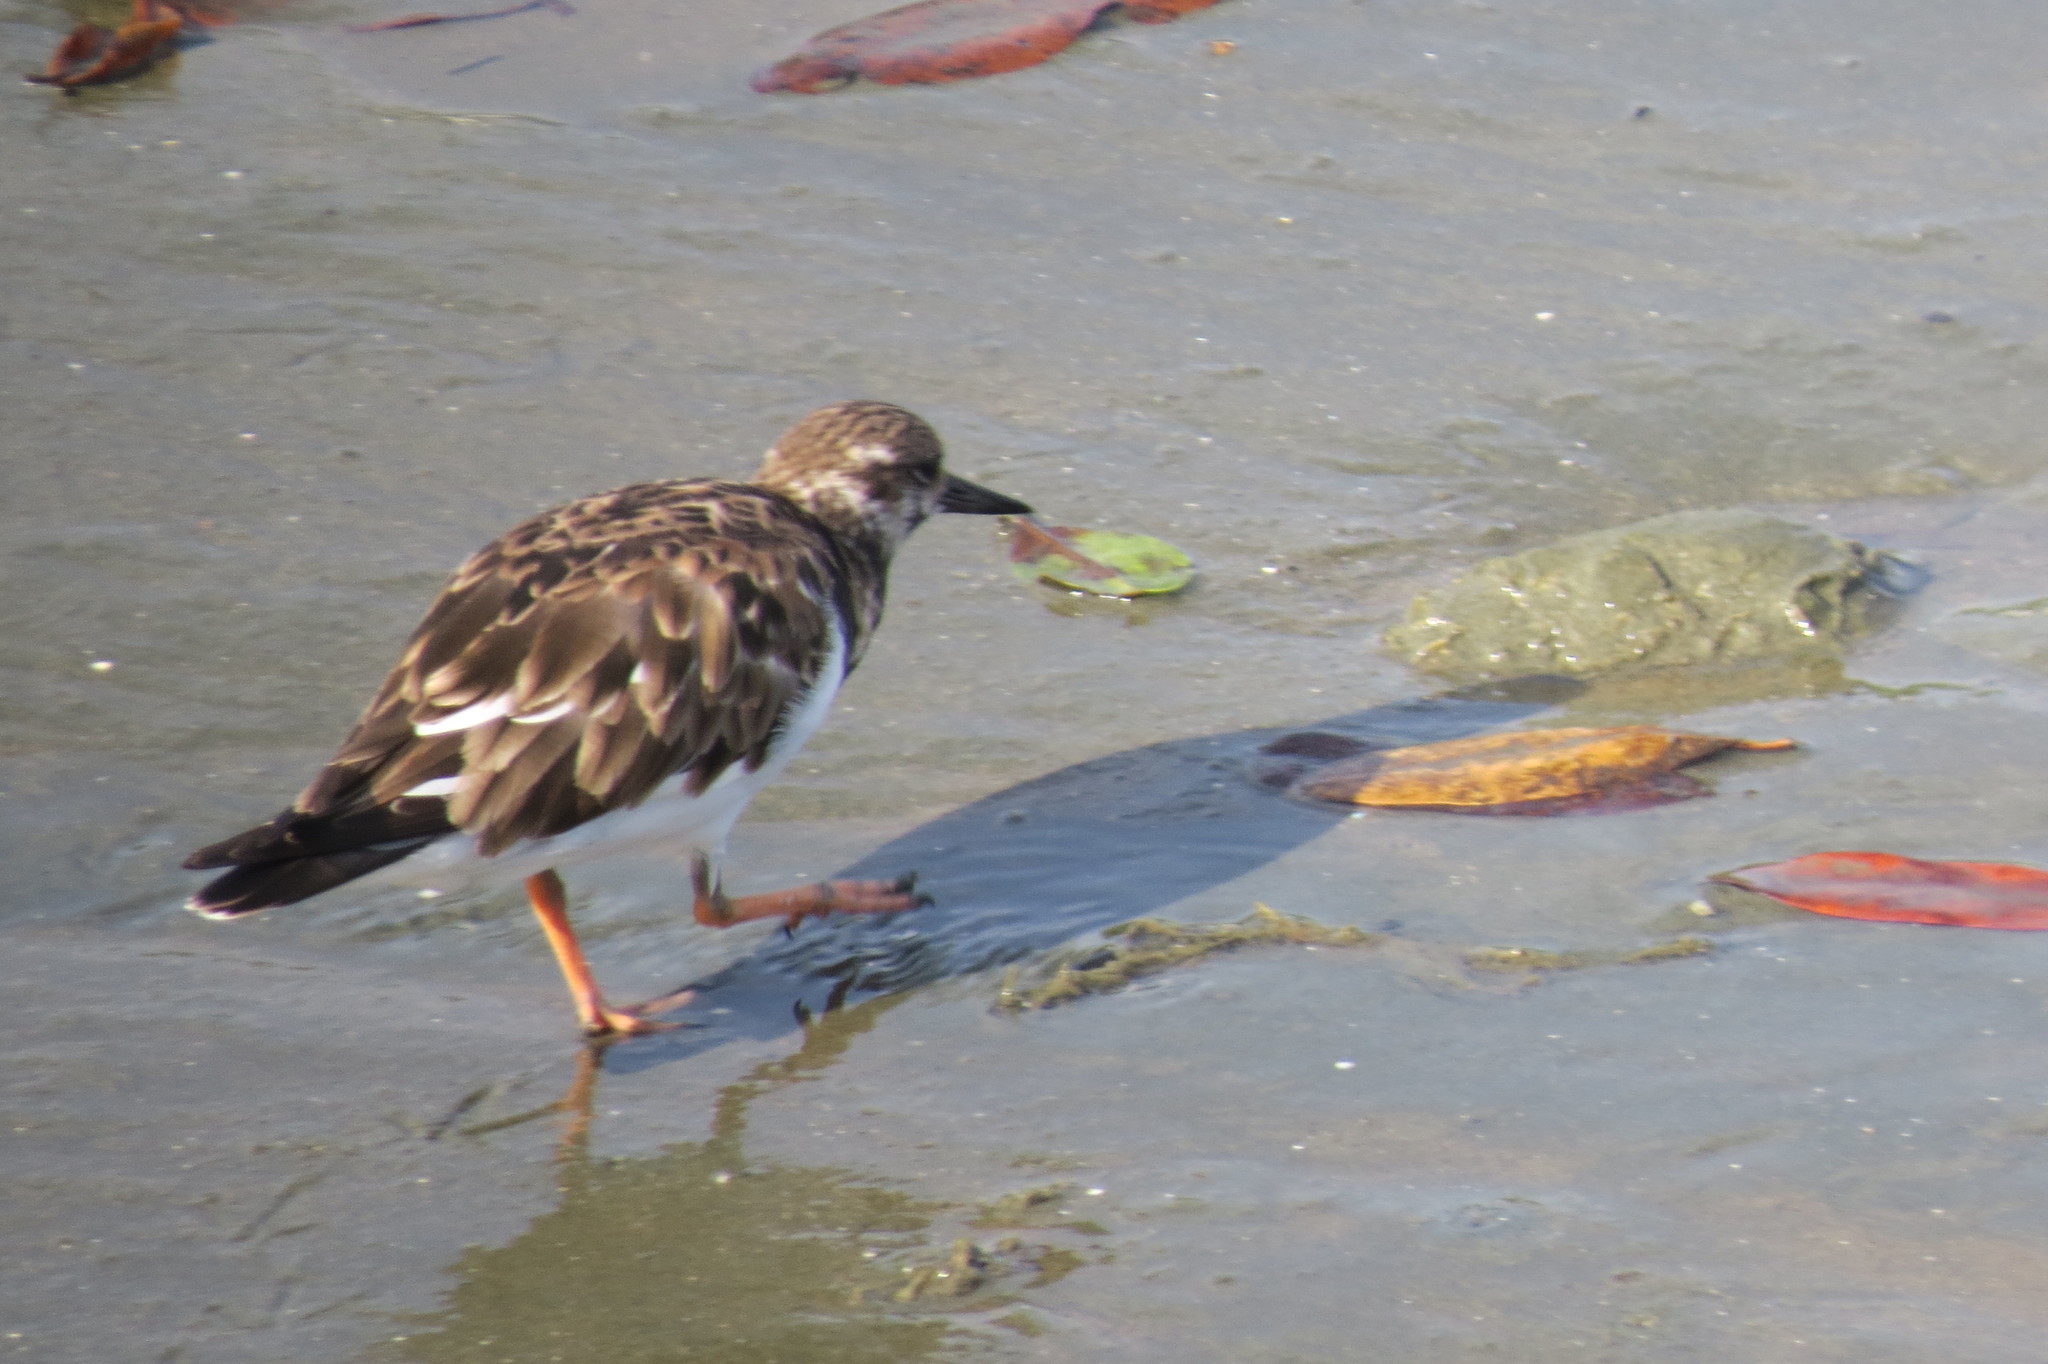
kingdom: Animalia
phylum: Chordata
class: Aves
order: Charadriiformes
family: Scolopacidae
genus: Arenaria
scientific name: Arenaria interpres
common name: Ruddy turnstone
